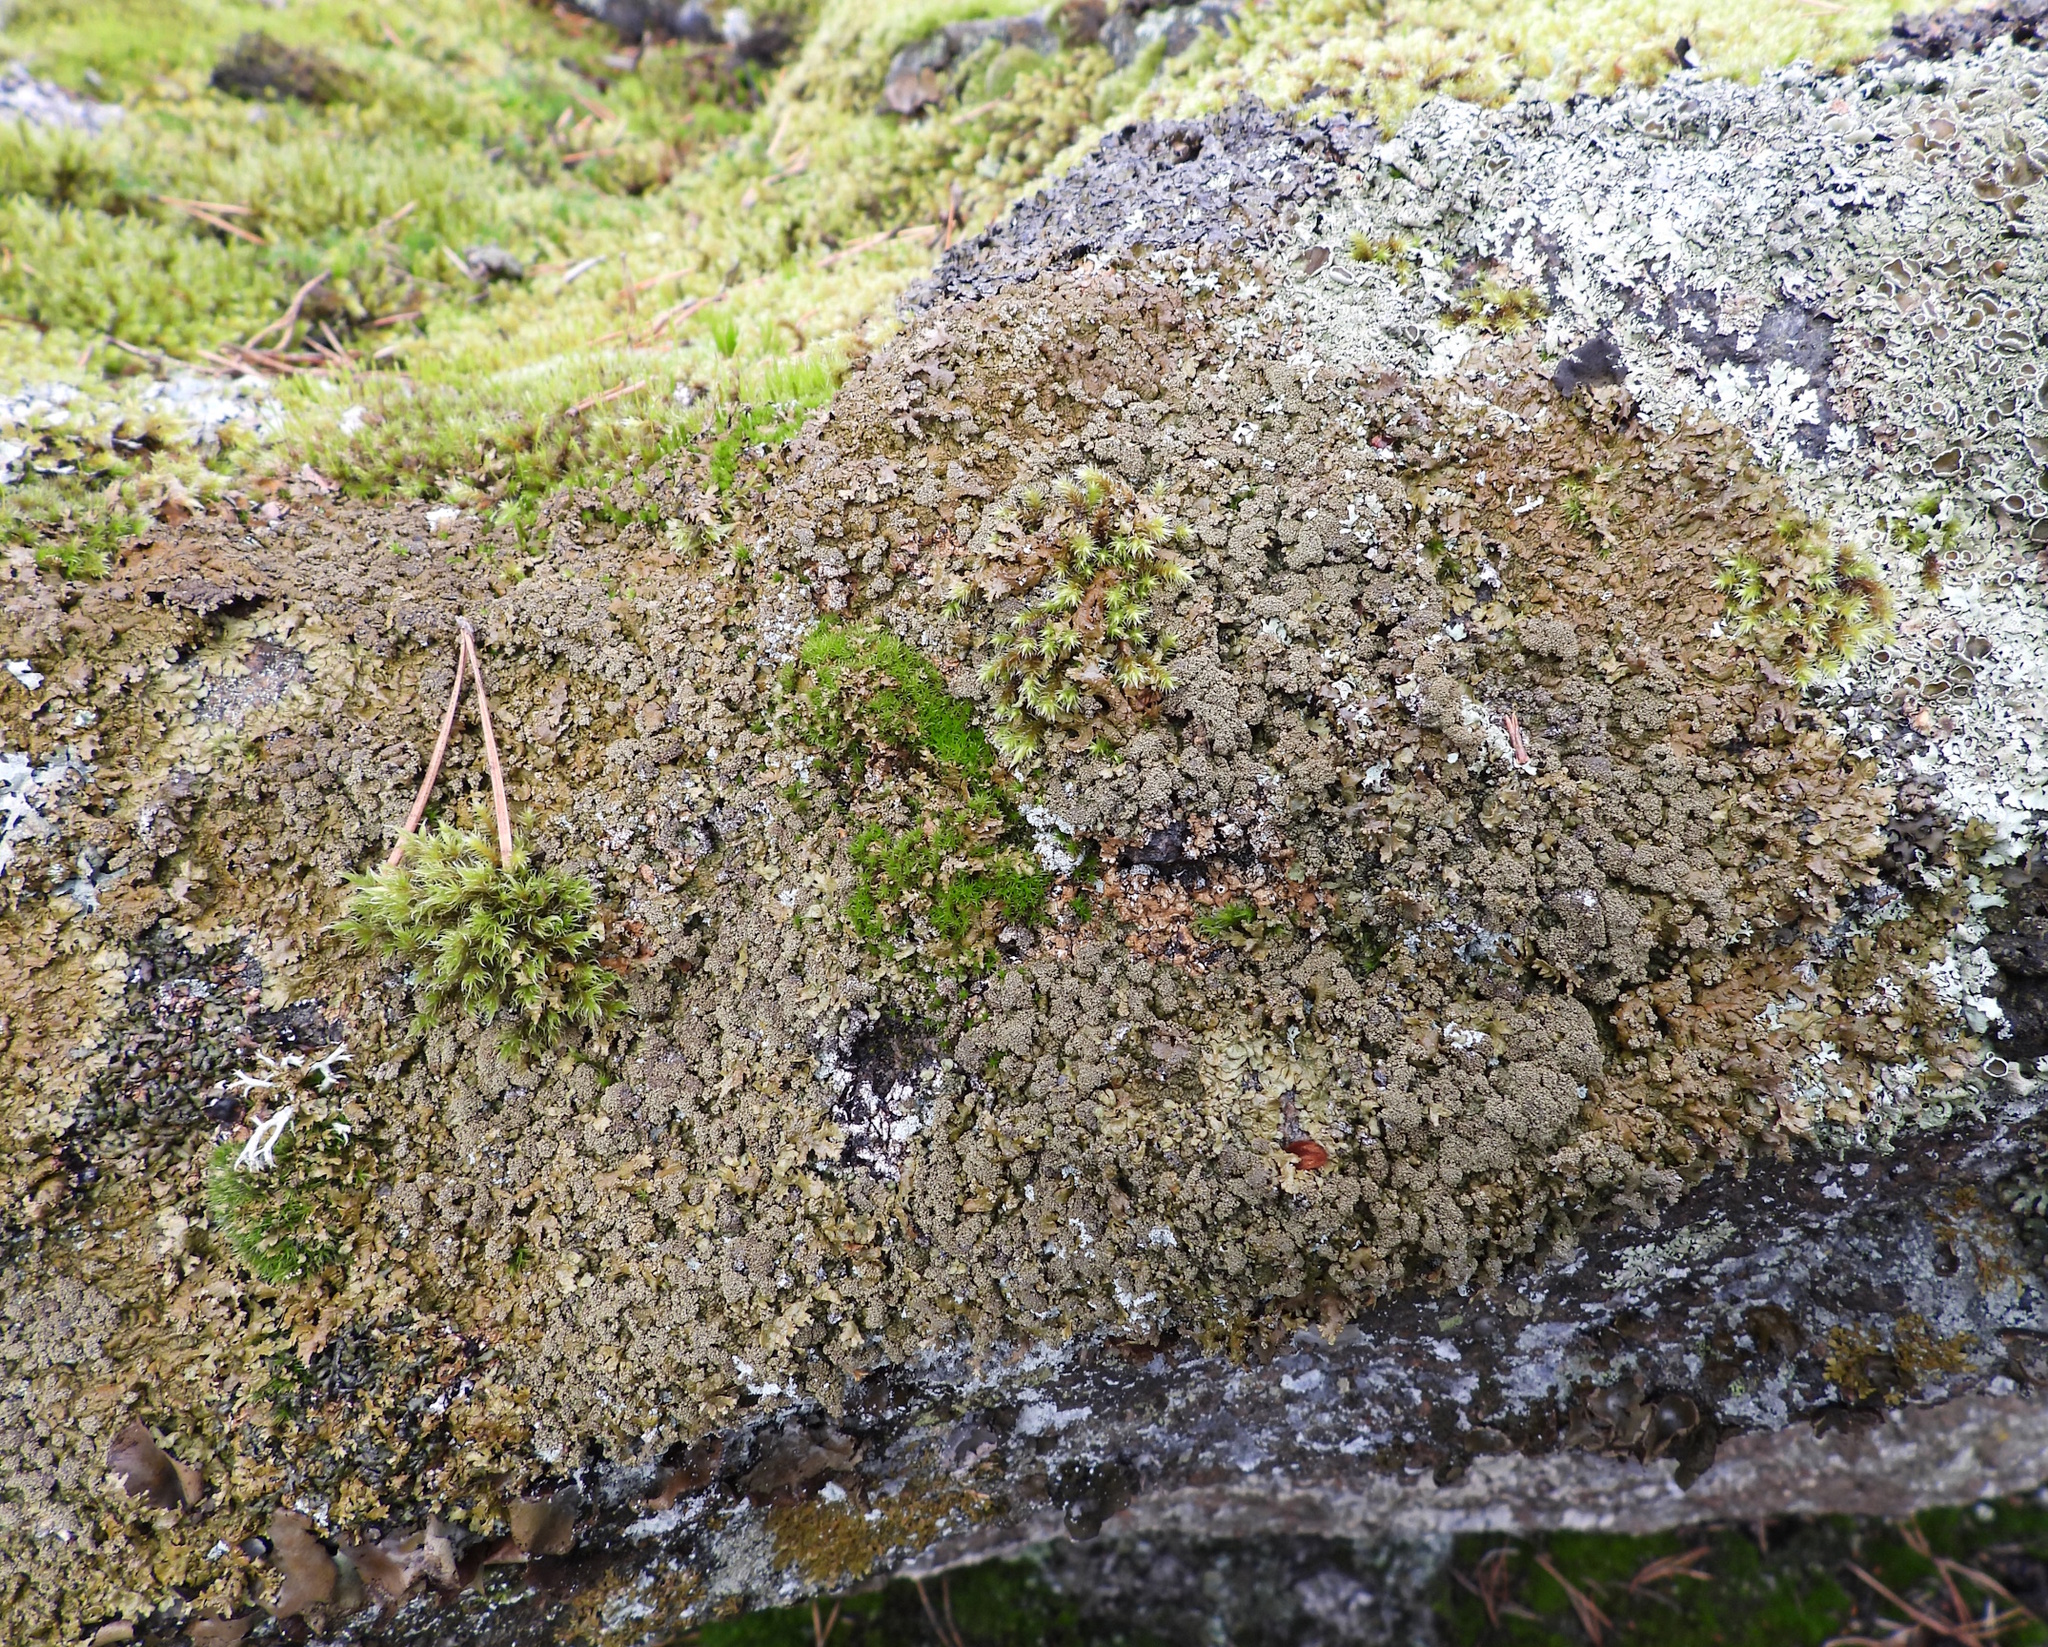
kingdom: Fungi
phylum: Ascomycota
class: Lecanoromycetes
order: Lecanorales
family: Parmeliaceae
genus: Xanthoparmelia
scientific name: Xanthoparmelia loxodes
